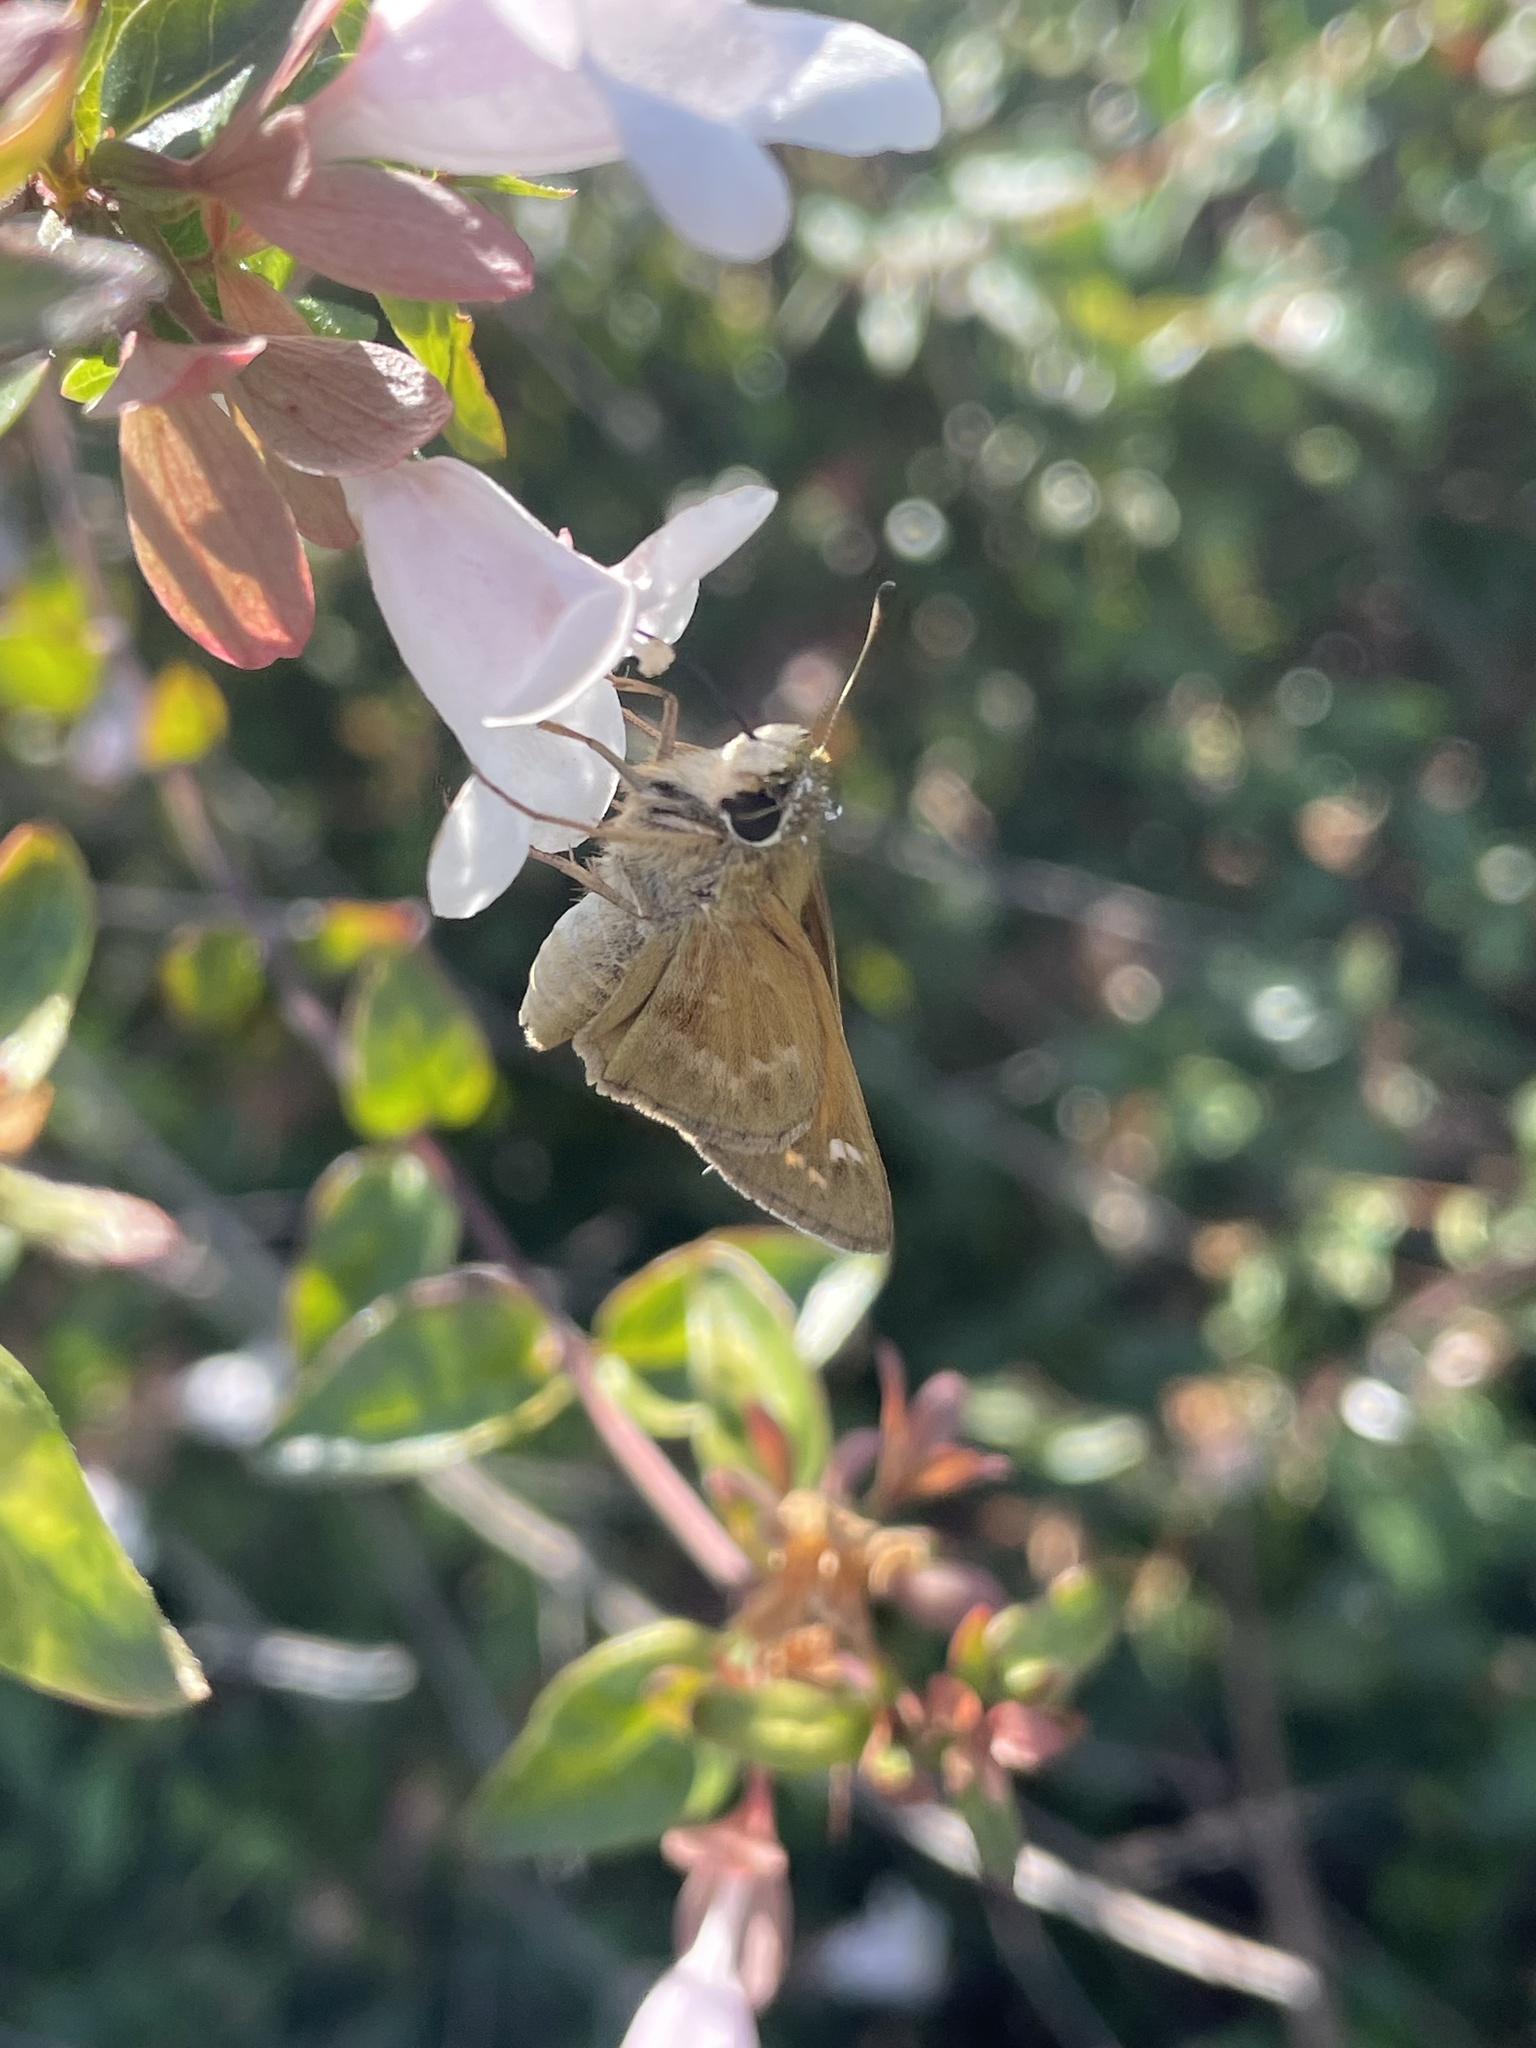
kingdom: Animalia
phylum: Arthropoda
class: Insecta
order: Lepidoptera
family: Hesperiidae
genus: Atalopedes
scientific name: Atalopedes
